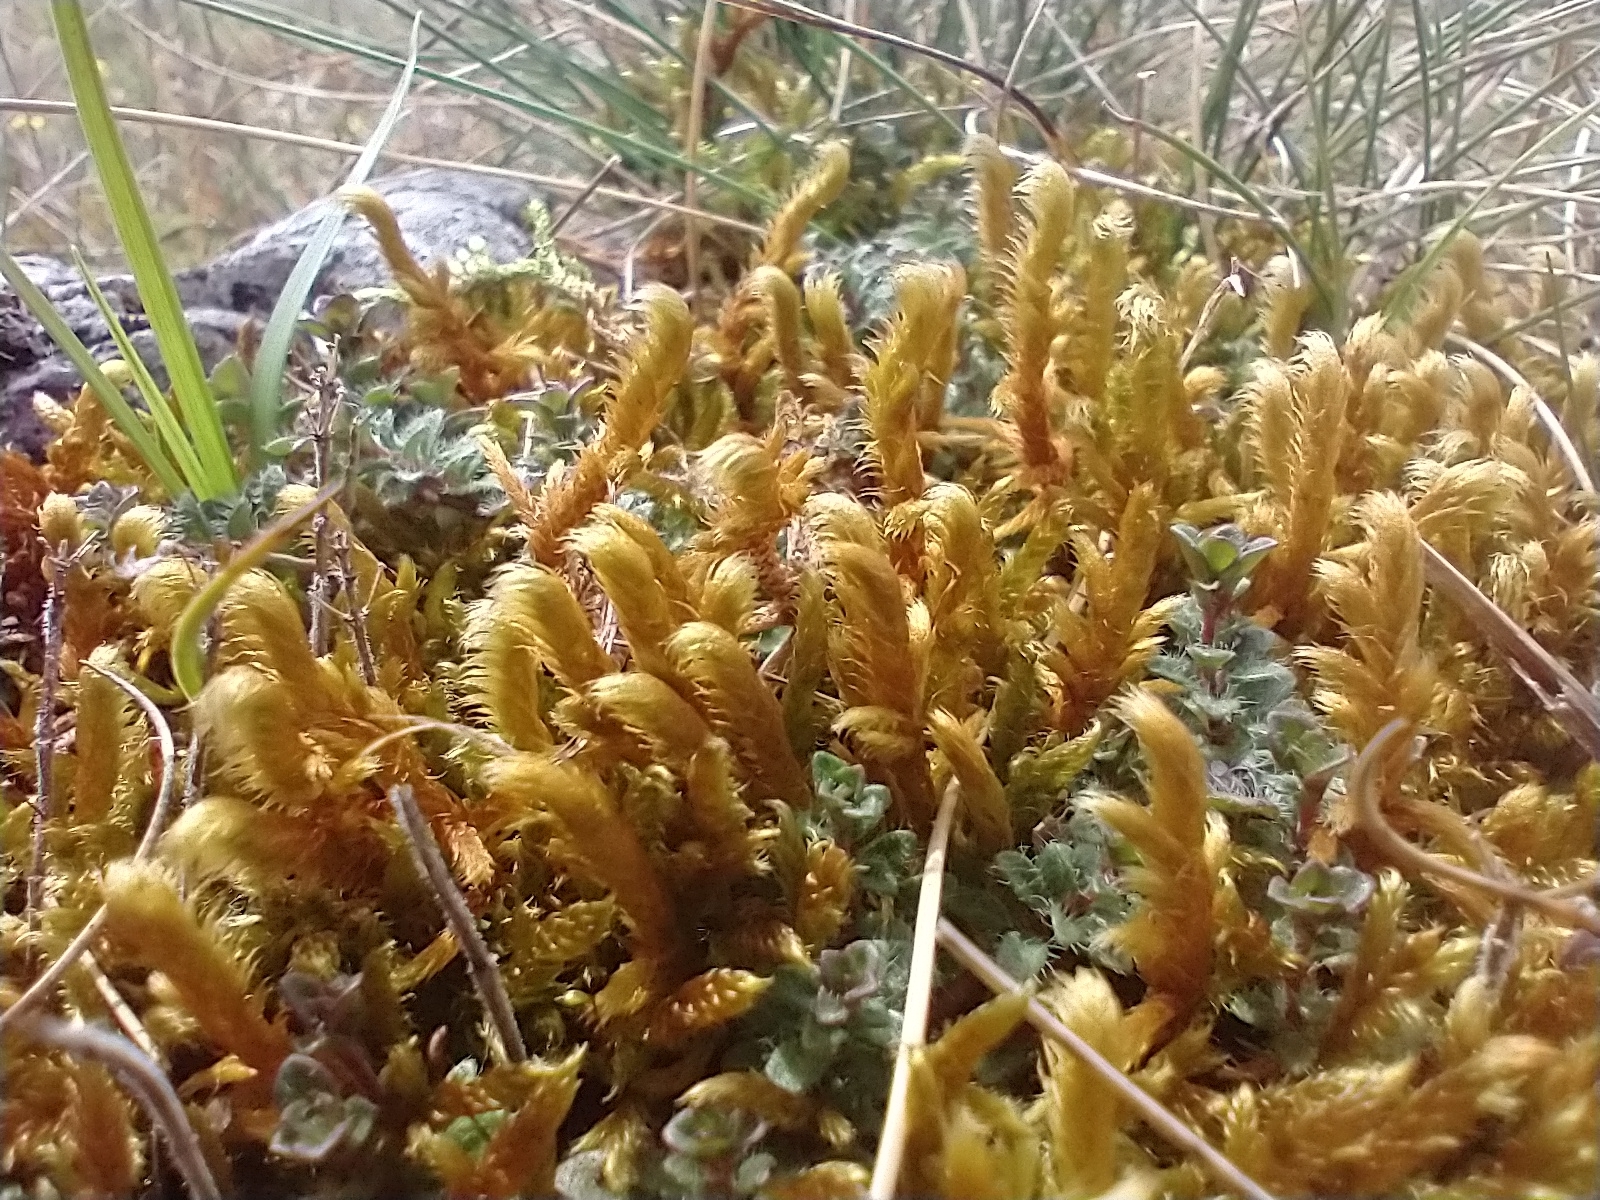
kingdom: Plantae
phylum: Bryophyta
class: Bryopsida
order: Hypnales
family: Rhytidiaceae
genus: Rhytidium
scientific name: Rhytidium rugosum
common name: Wrinkle-leaved moss
